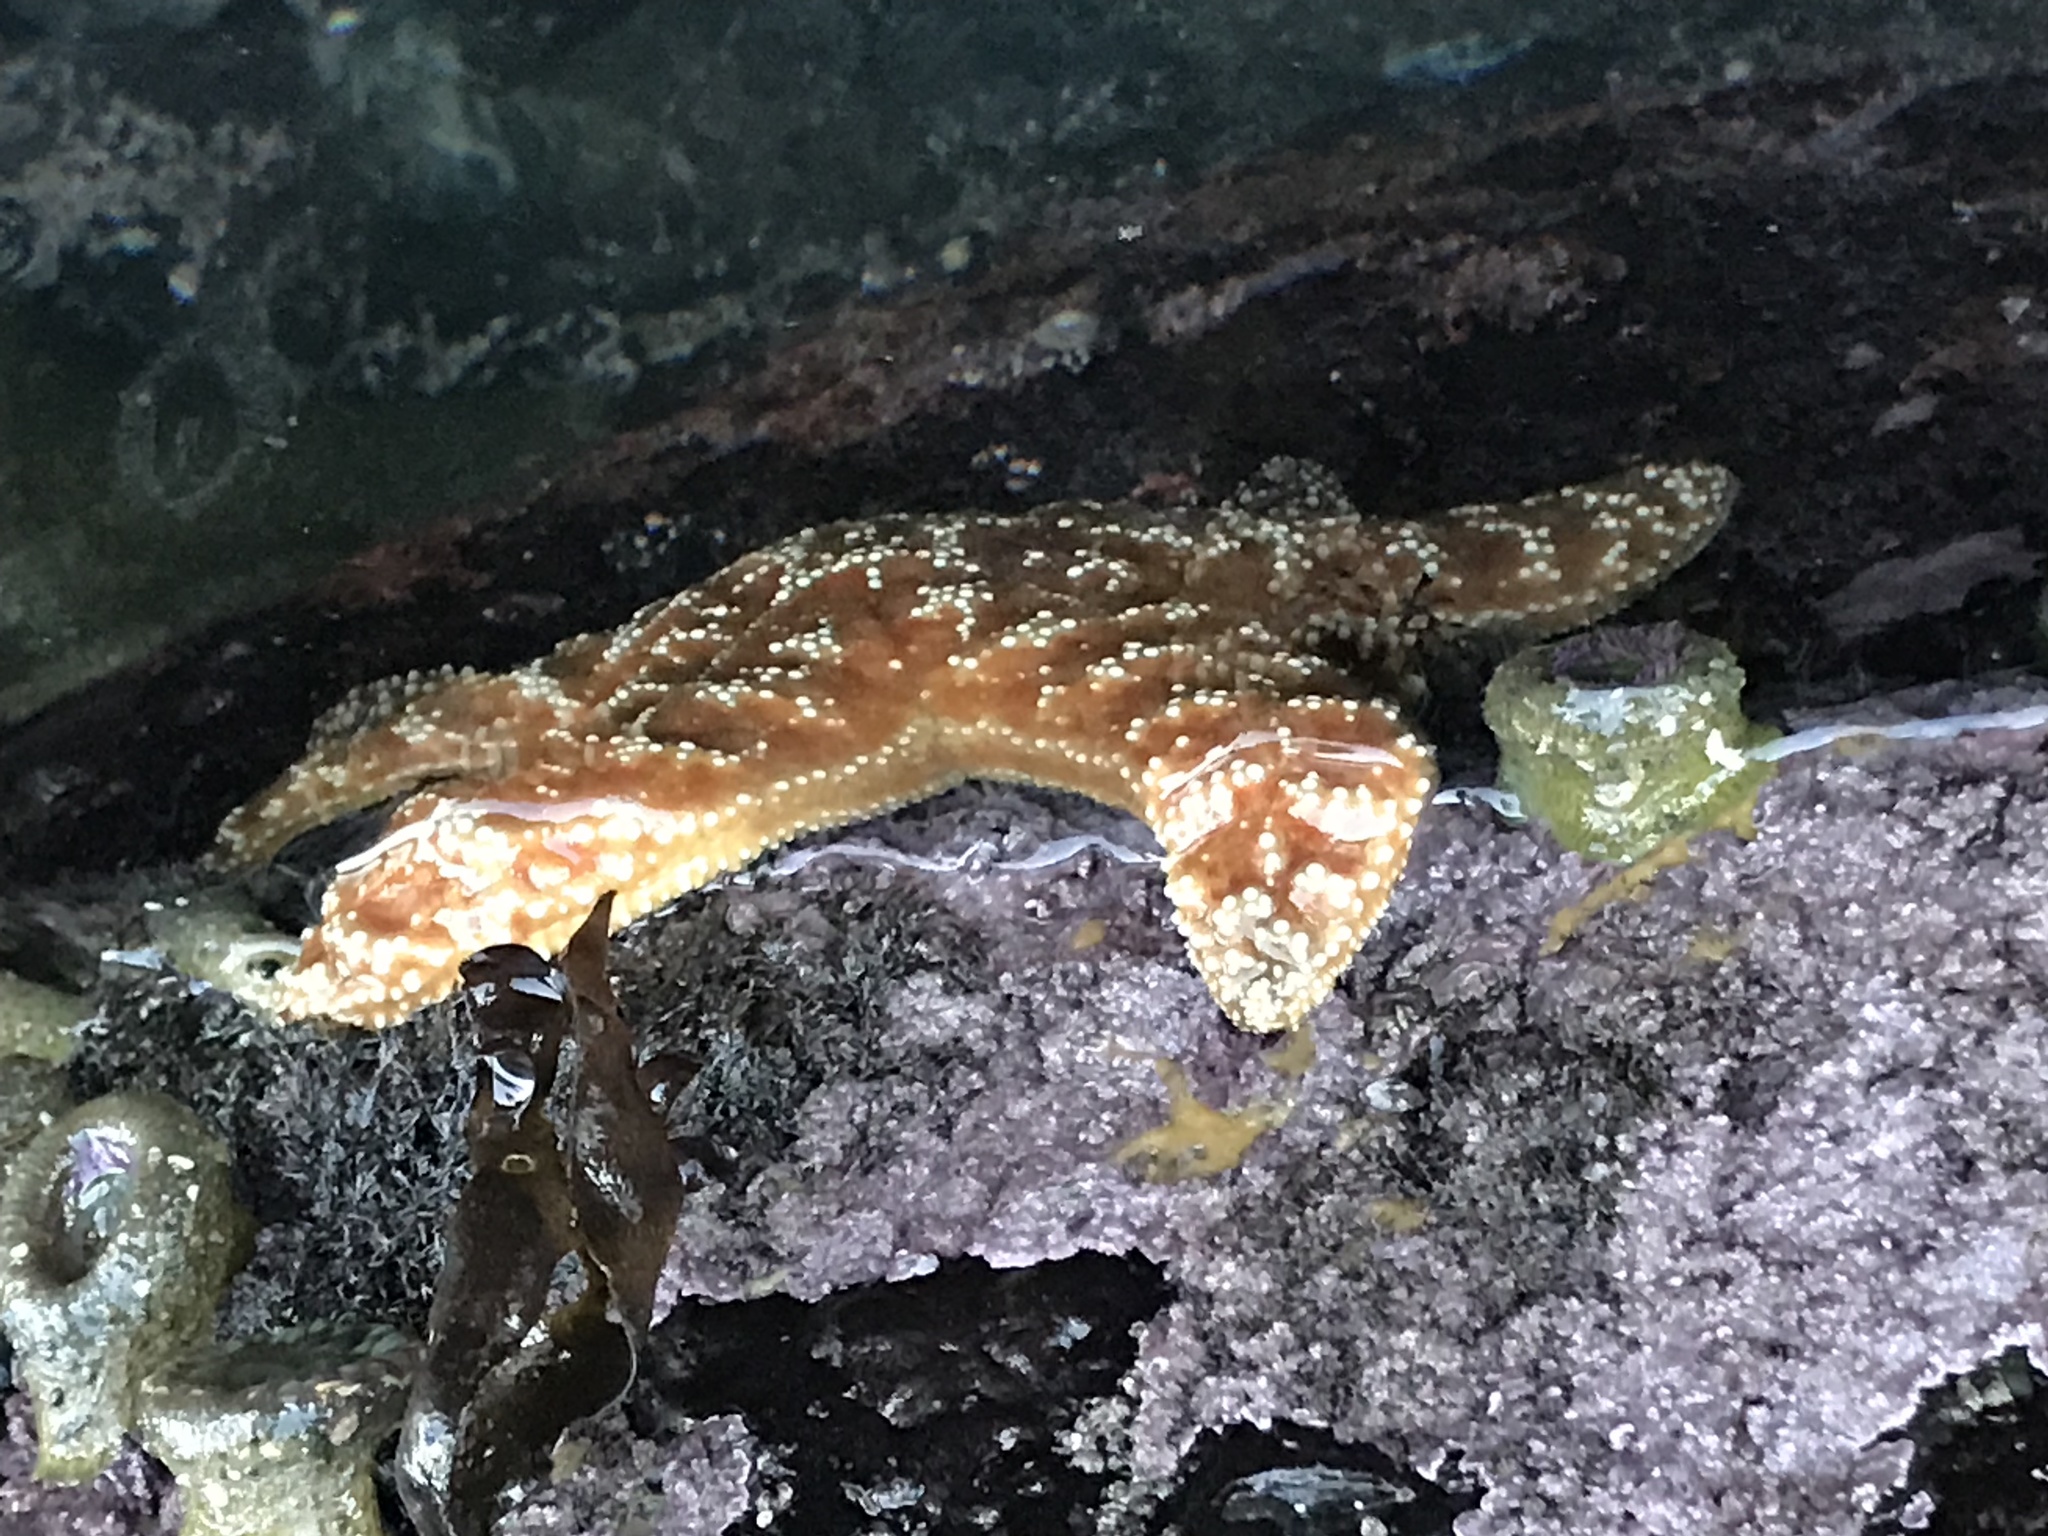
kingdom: Animalia
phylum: Echinodermata
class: Asteroidea
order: Forcipulatida
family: Asteriidae
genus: Pisaster
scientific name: Pisaster ochraceus
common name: Ochre stars
